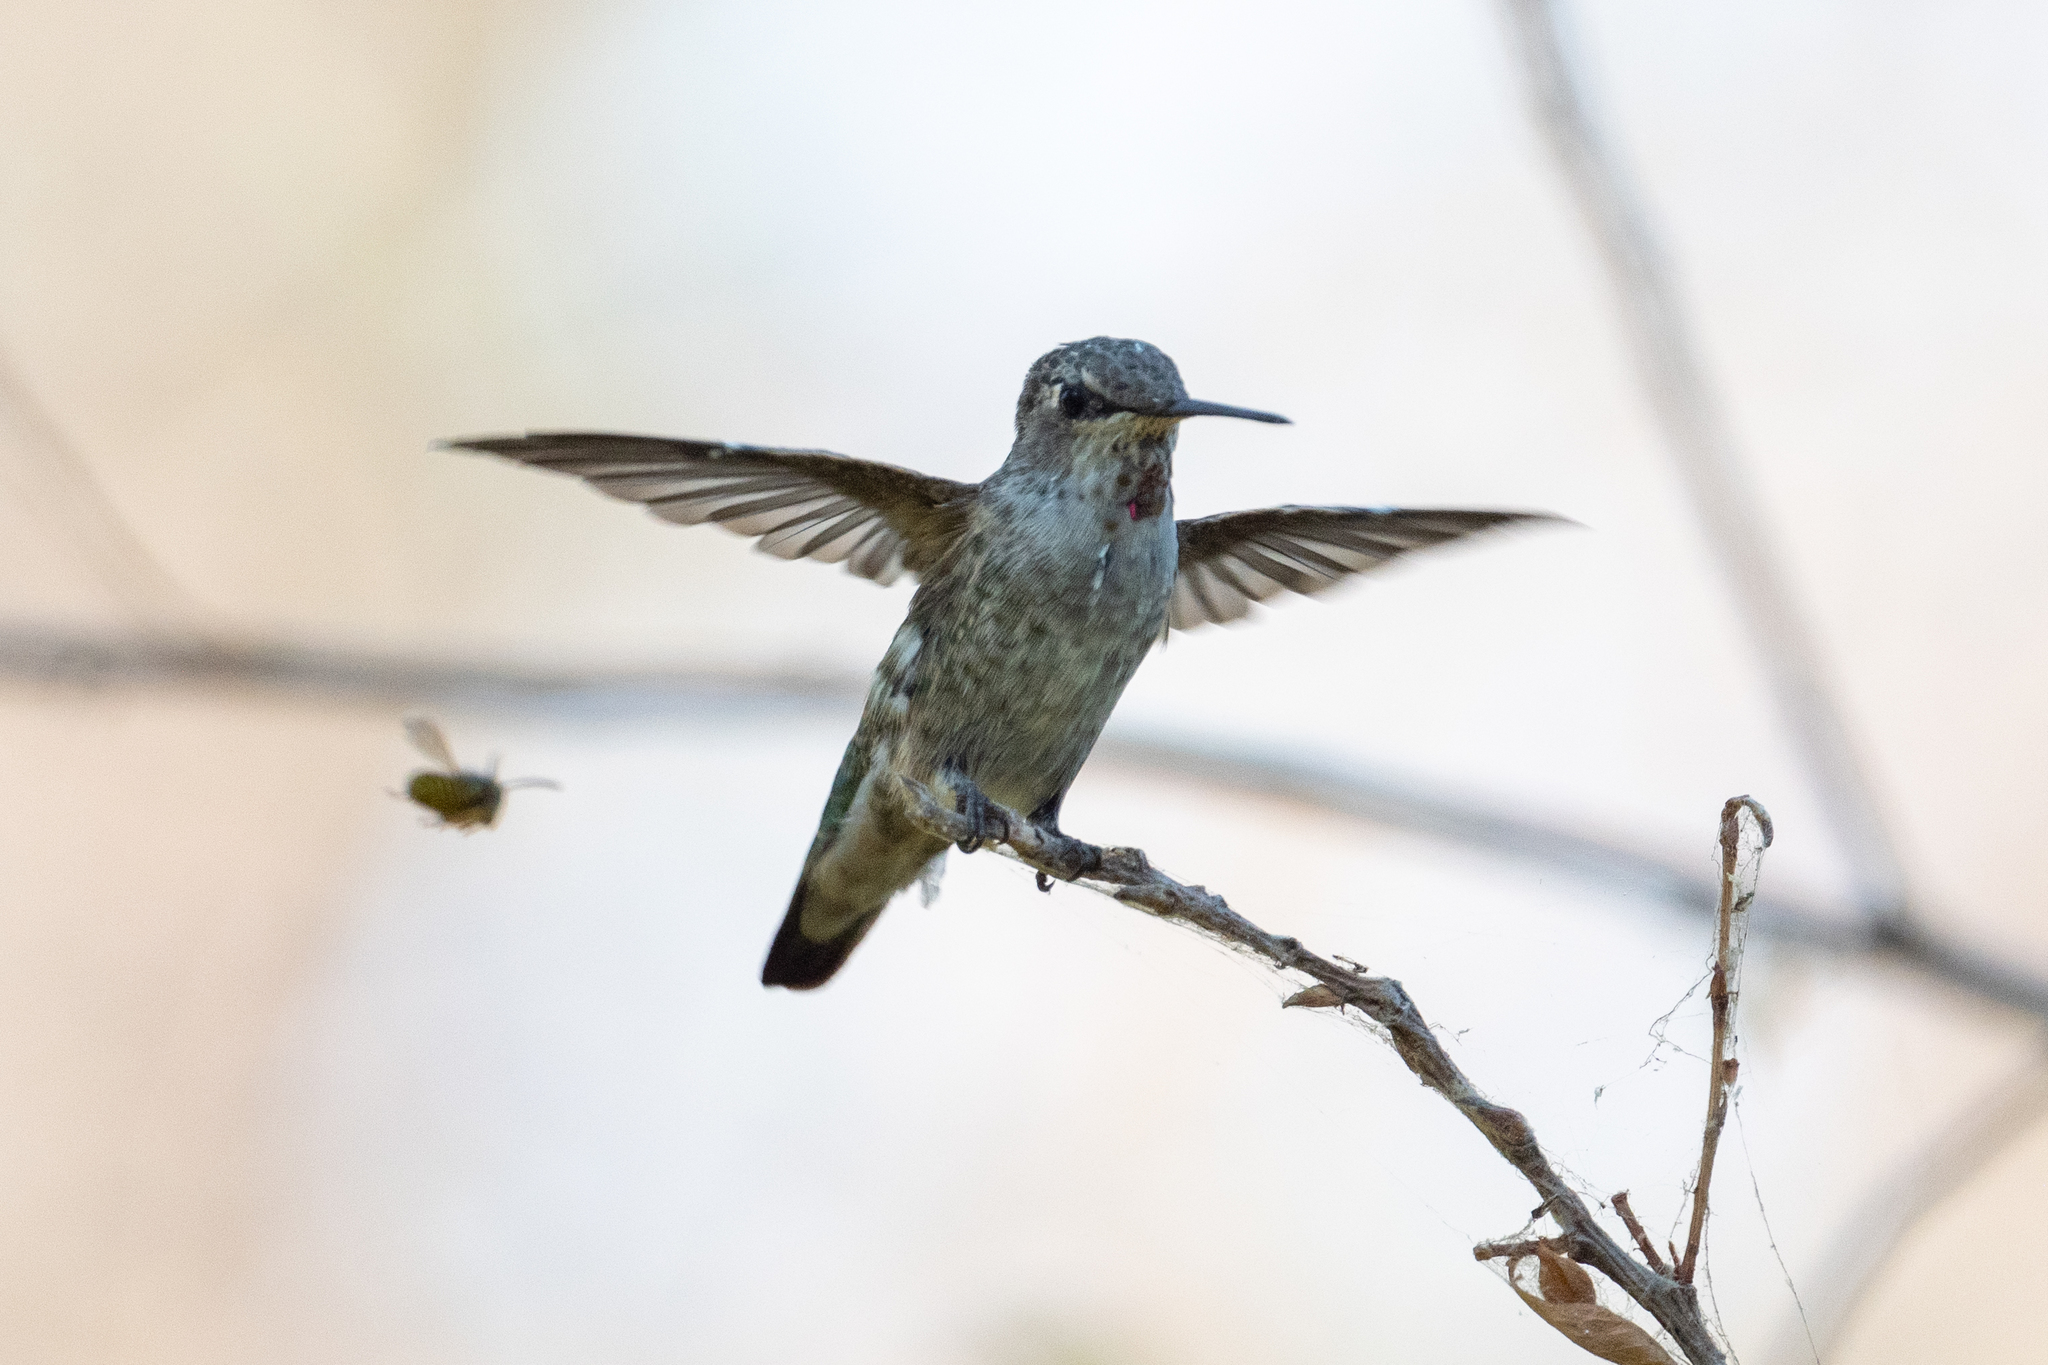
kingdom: Animalia
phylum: Chordata
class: Aves
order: Apodiformes
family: Trochilidae
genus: Calypte
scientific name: Calypte anna
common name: Anna's hummingbird
